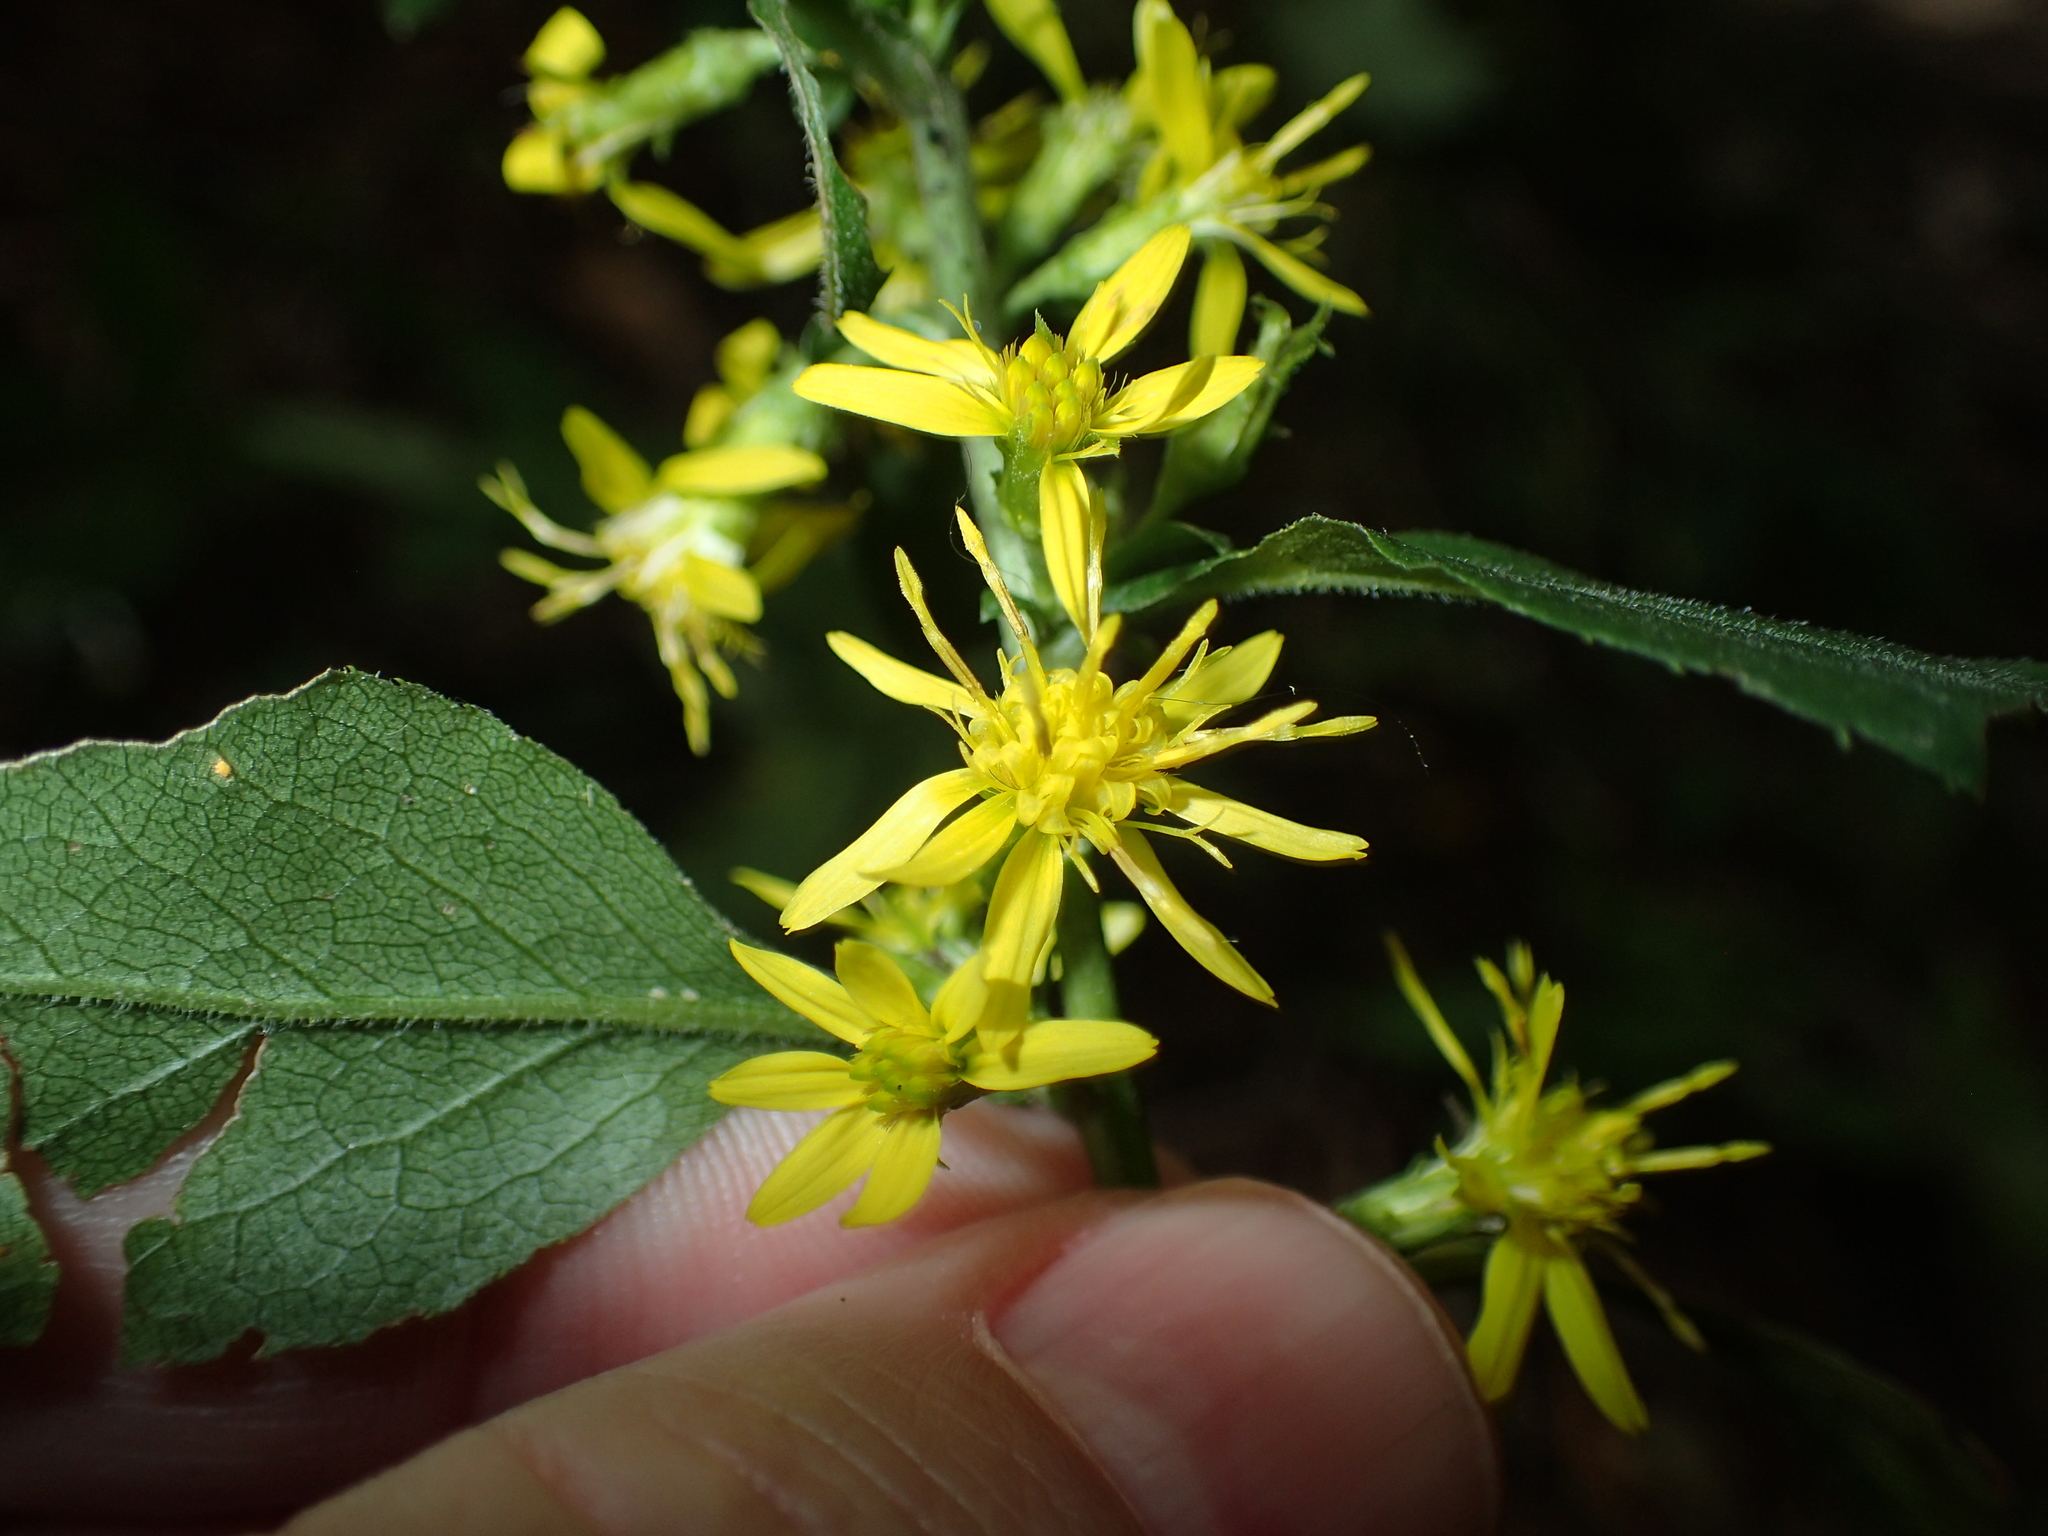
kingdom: Plantae
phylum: Tracheophyta
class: Magnoliopsida
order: Asterales
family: Asteraceae
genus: Solidago
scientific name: Solidago macrophylla
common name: Large-leaved goldenrod
